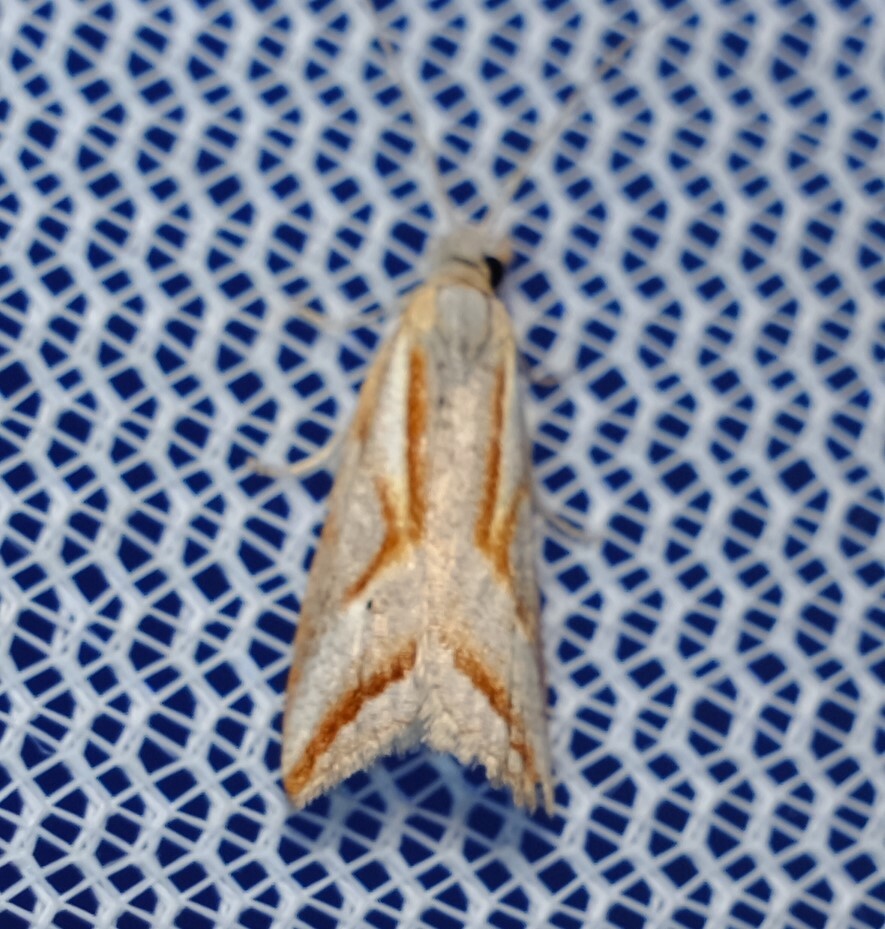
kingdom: Animalia
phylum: Arthropoda
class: Insecta
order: Lepidoptera
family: Tortricidae
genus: Arotrophora
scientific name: Arotrophora arcuatalis
